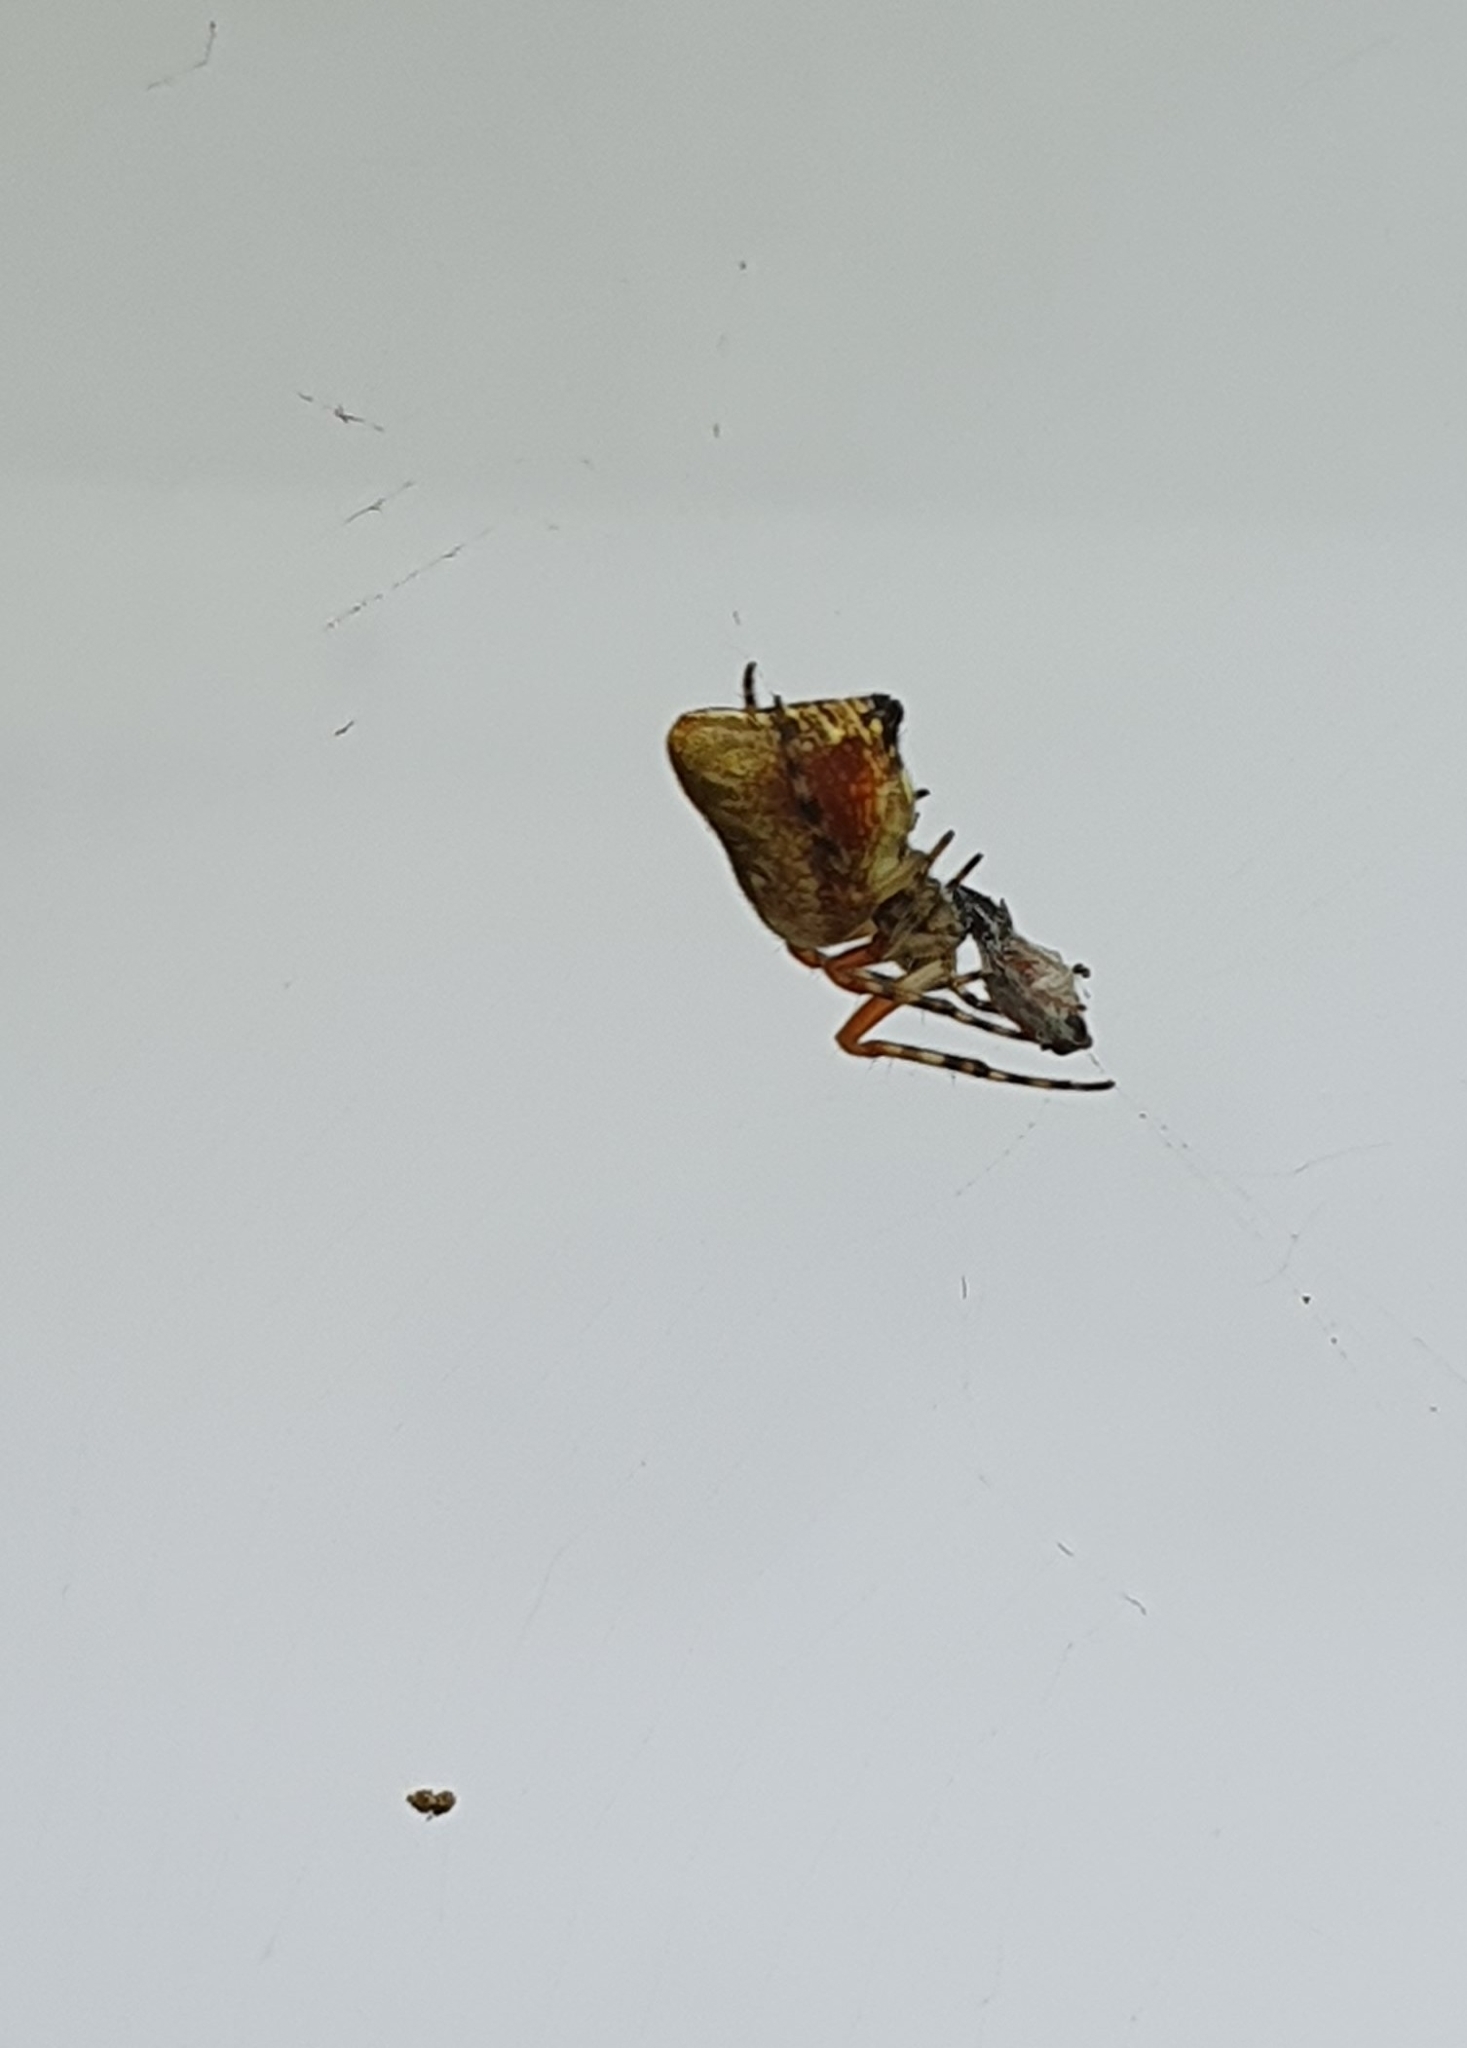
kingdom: Animalia
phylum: Arthropoda
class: Arachnida
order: Araneae
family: Araneidae
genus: Cyclosa
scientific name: Cyclosa conica
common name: Conical trashline orbweaver
